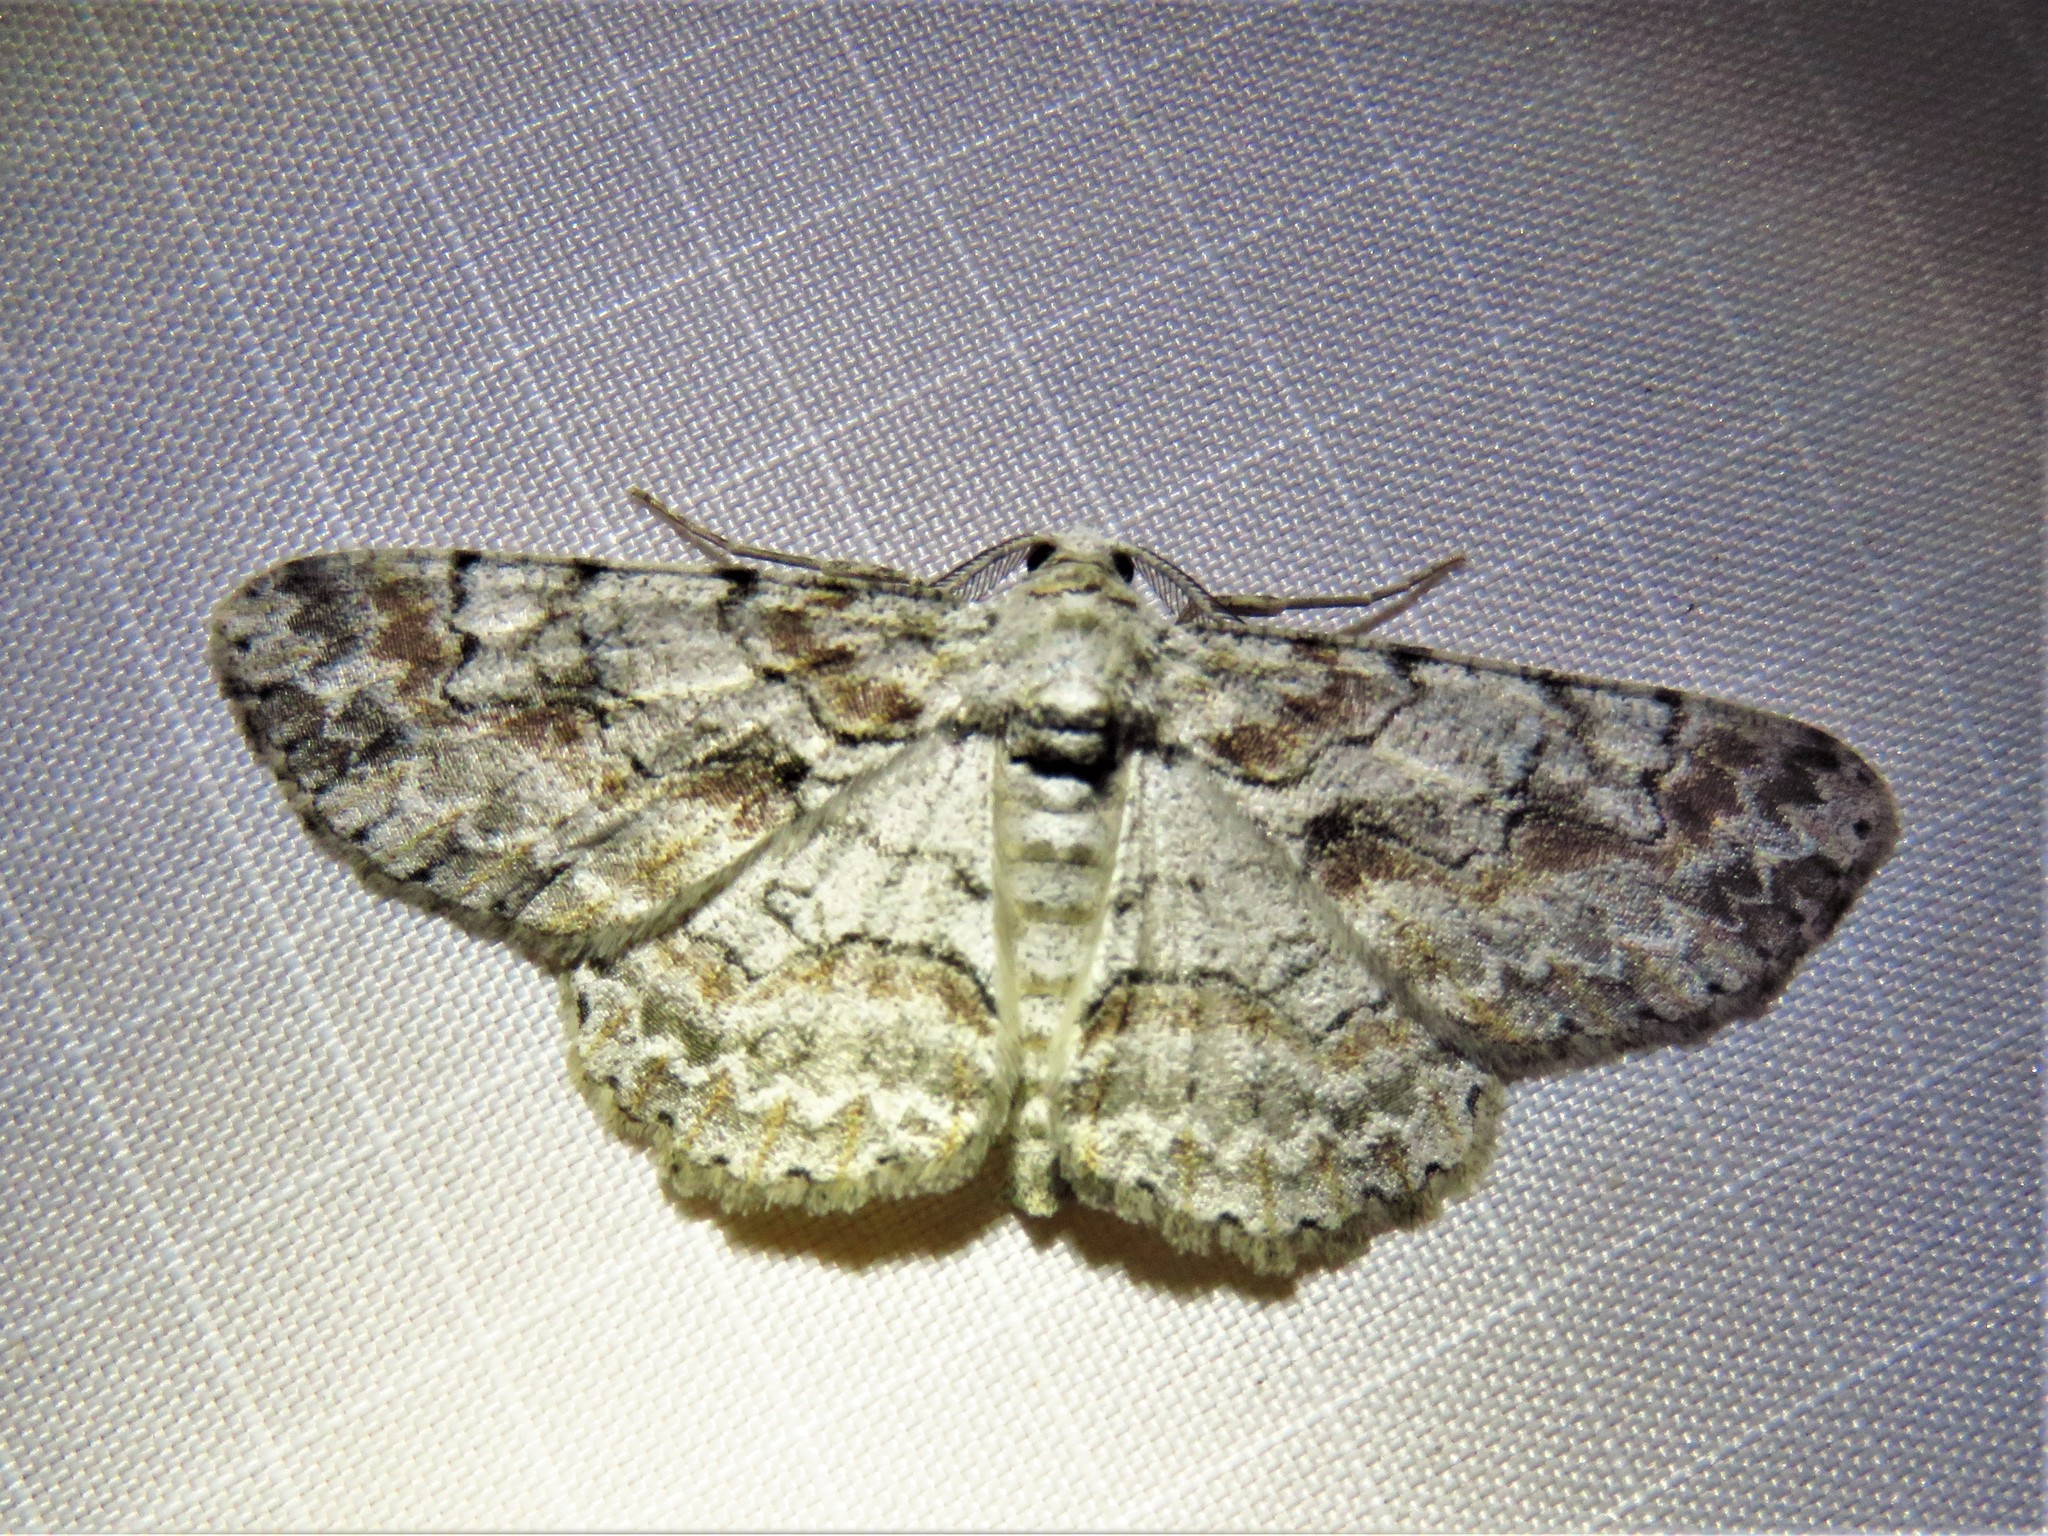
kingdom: Animalia
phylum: Arthropoda
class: Insecta
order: Lepidoptera
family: Geometridae
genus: Iridopsis
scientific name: Iridopsis defectaria
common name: Brown-shaded gray
